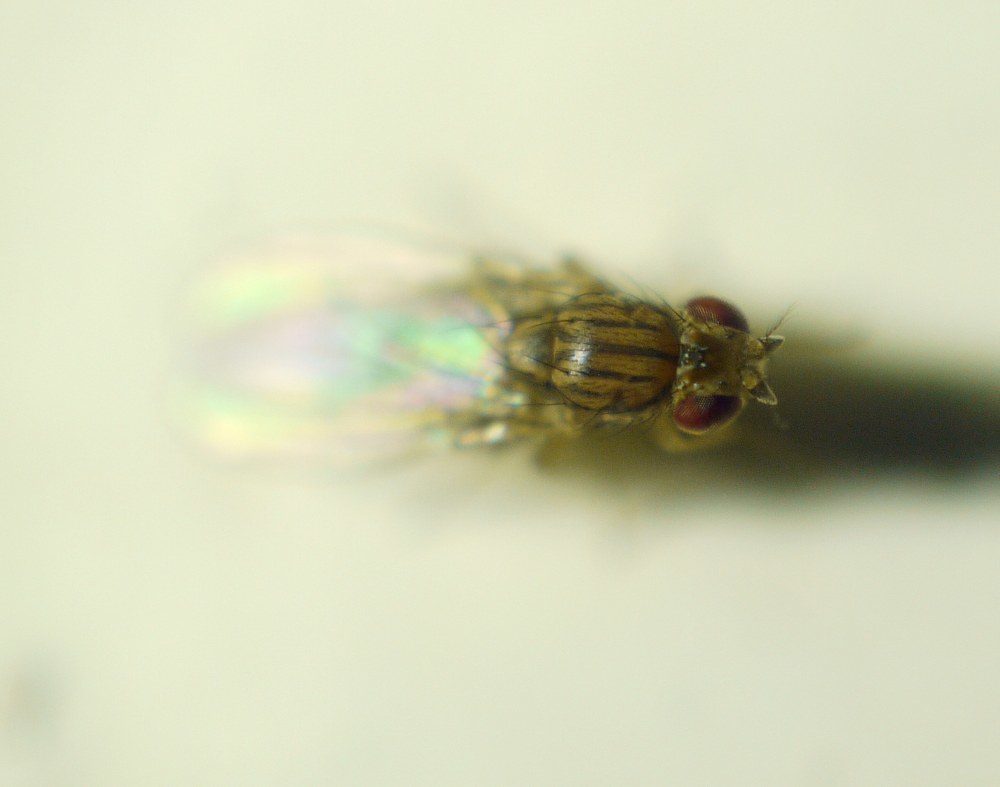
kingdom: Animalia
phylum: Arthropoda
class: Insecta
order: Diptera
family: Drosophilidae
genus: Drosophila
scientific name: Drosophila busckii
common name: Pomace fly
